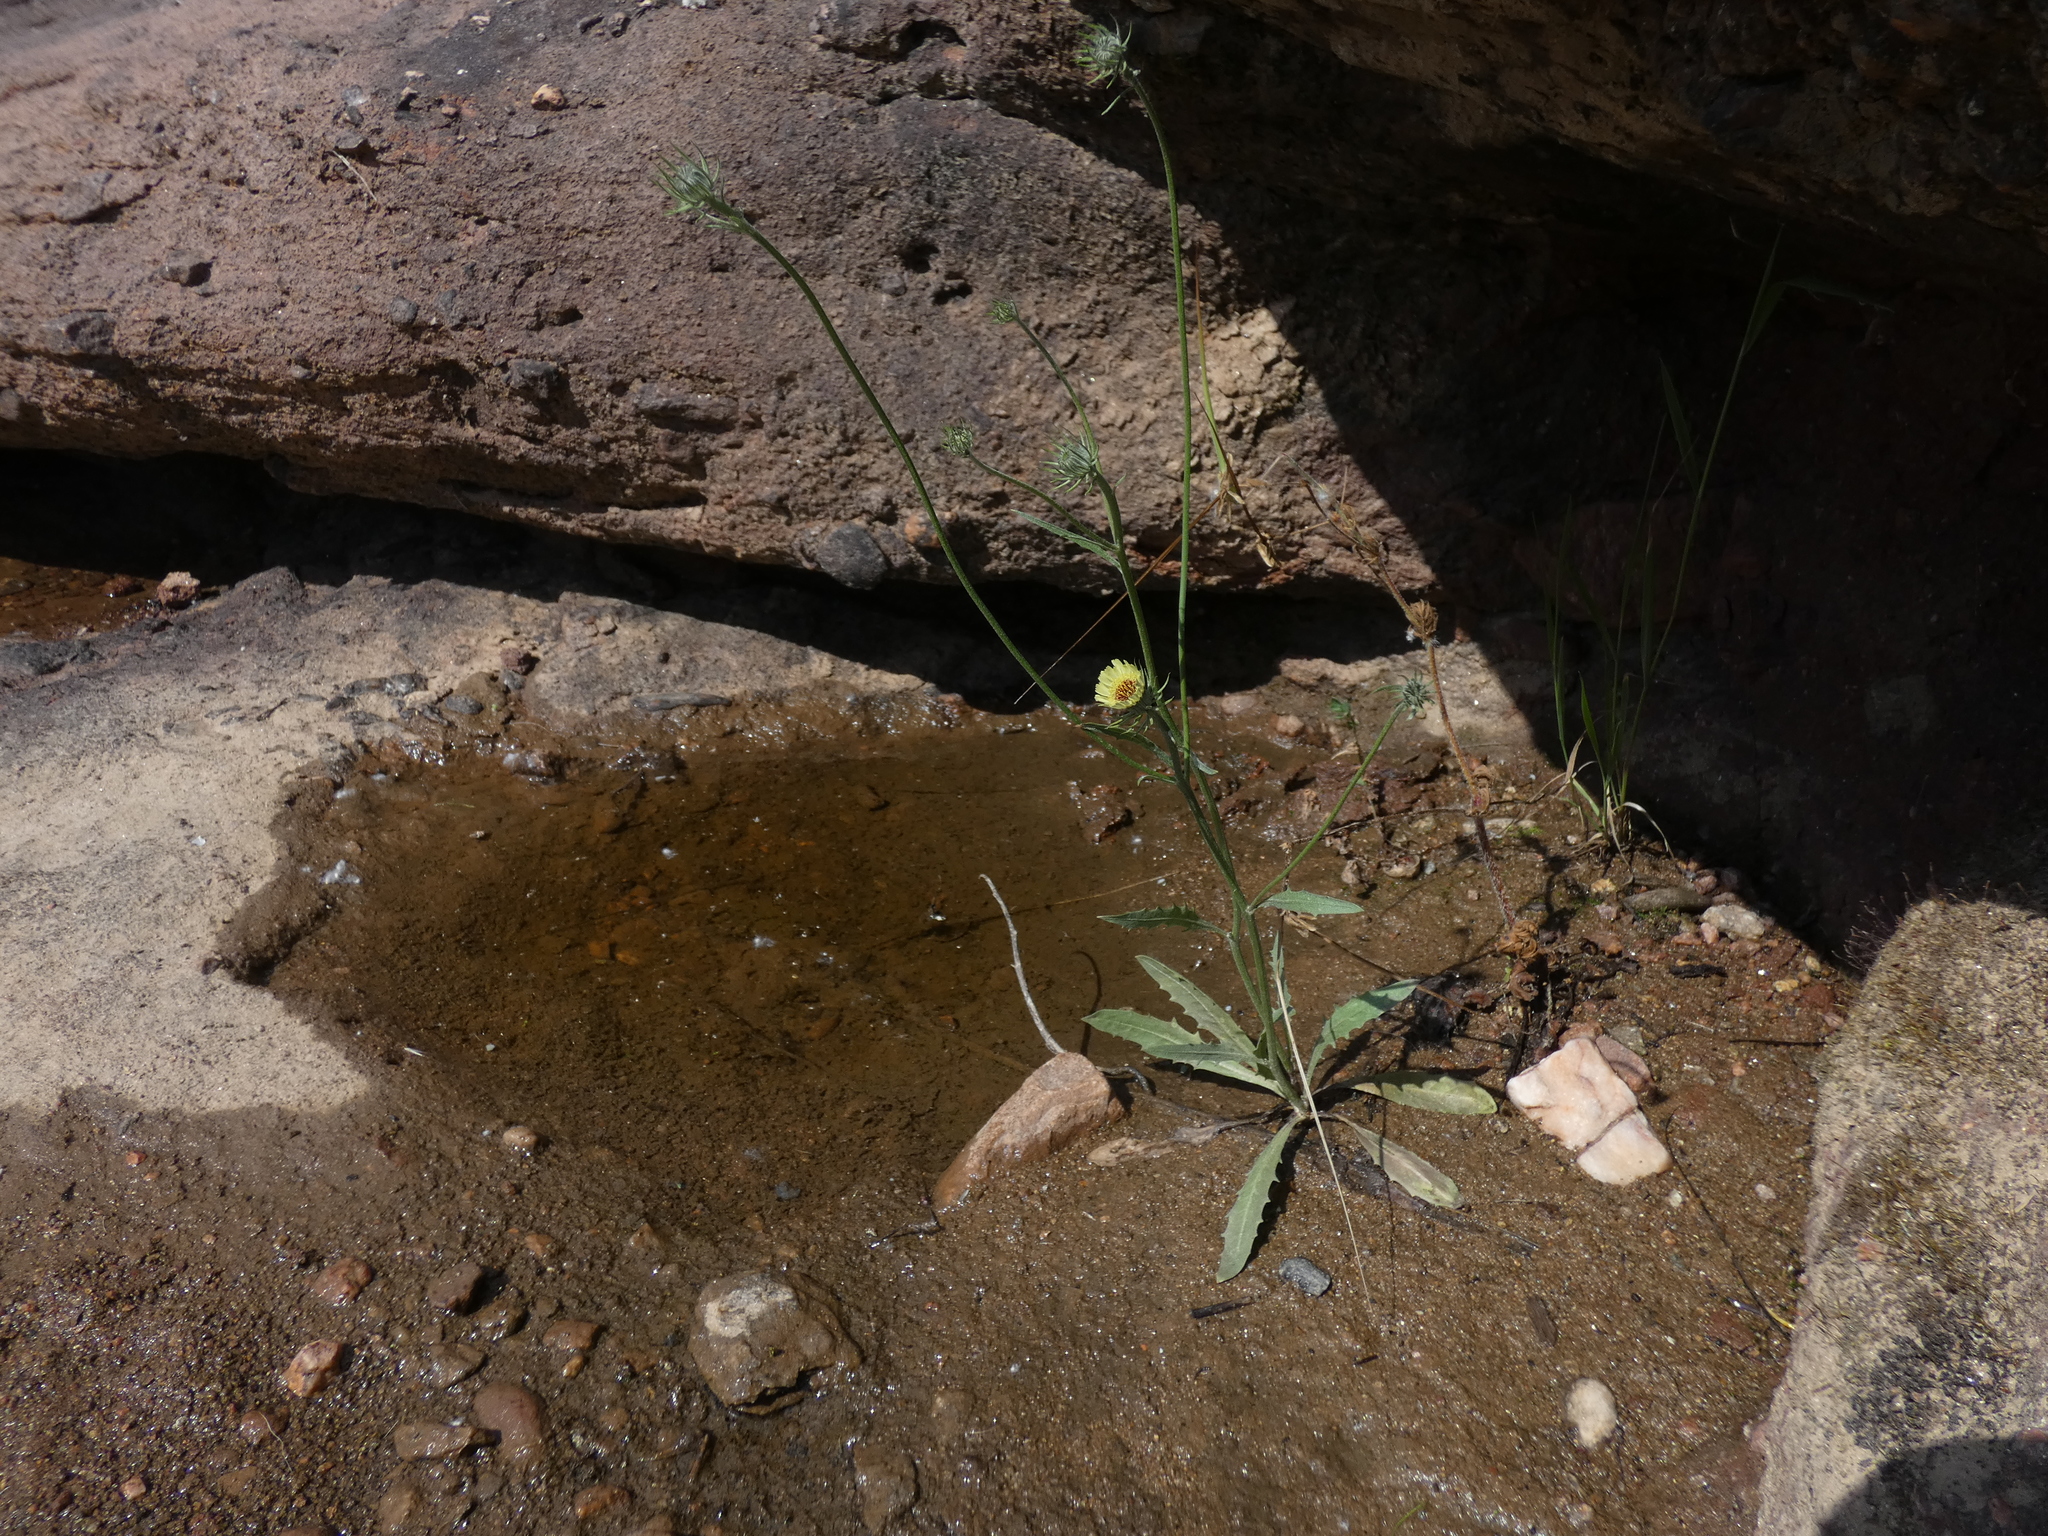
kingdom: Plantae
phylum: Tracheophyta
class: Magnoliopsida
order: Asterales
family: Asteraceae
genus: Tolpis
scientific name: Tolpis umbellata
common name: Yellow hawkweed
